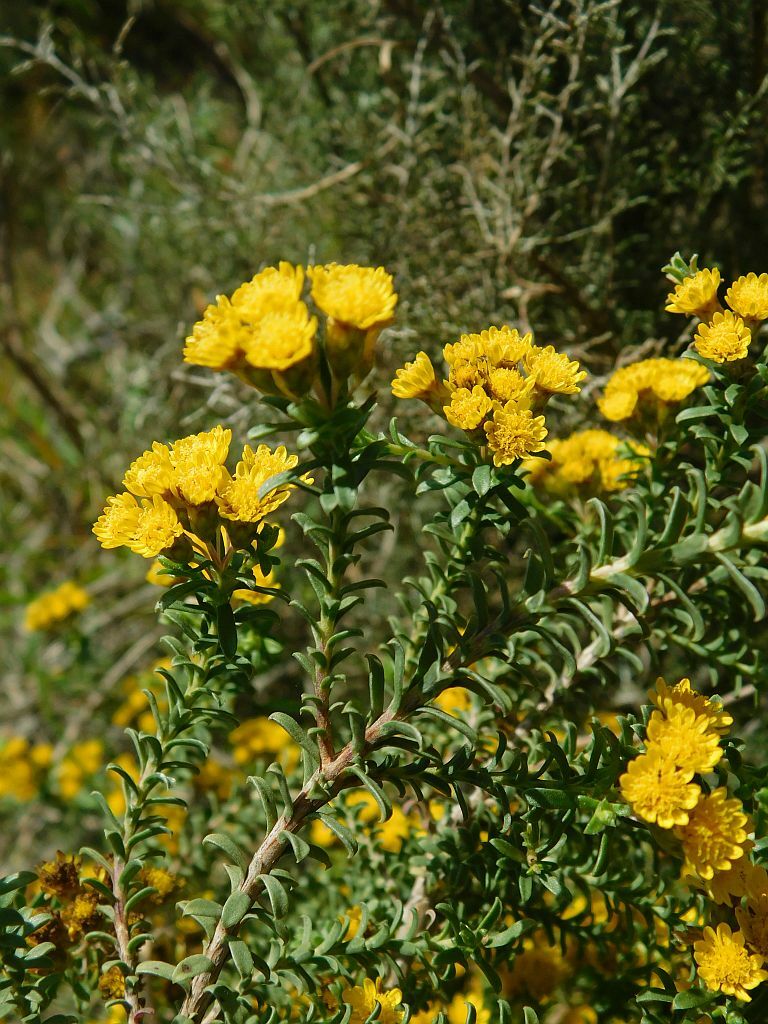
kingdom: Plantae
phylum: Tracheophyta
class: Magnoliopsida
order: Asterales
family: Asteraceae
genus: Oedera
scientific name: Oedera squarrosa
